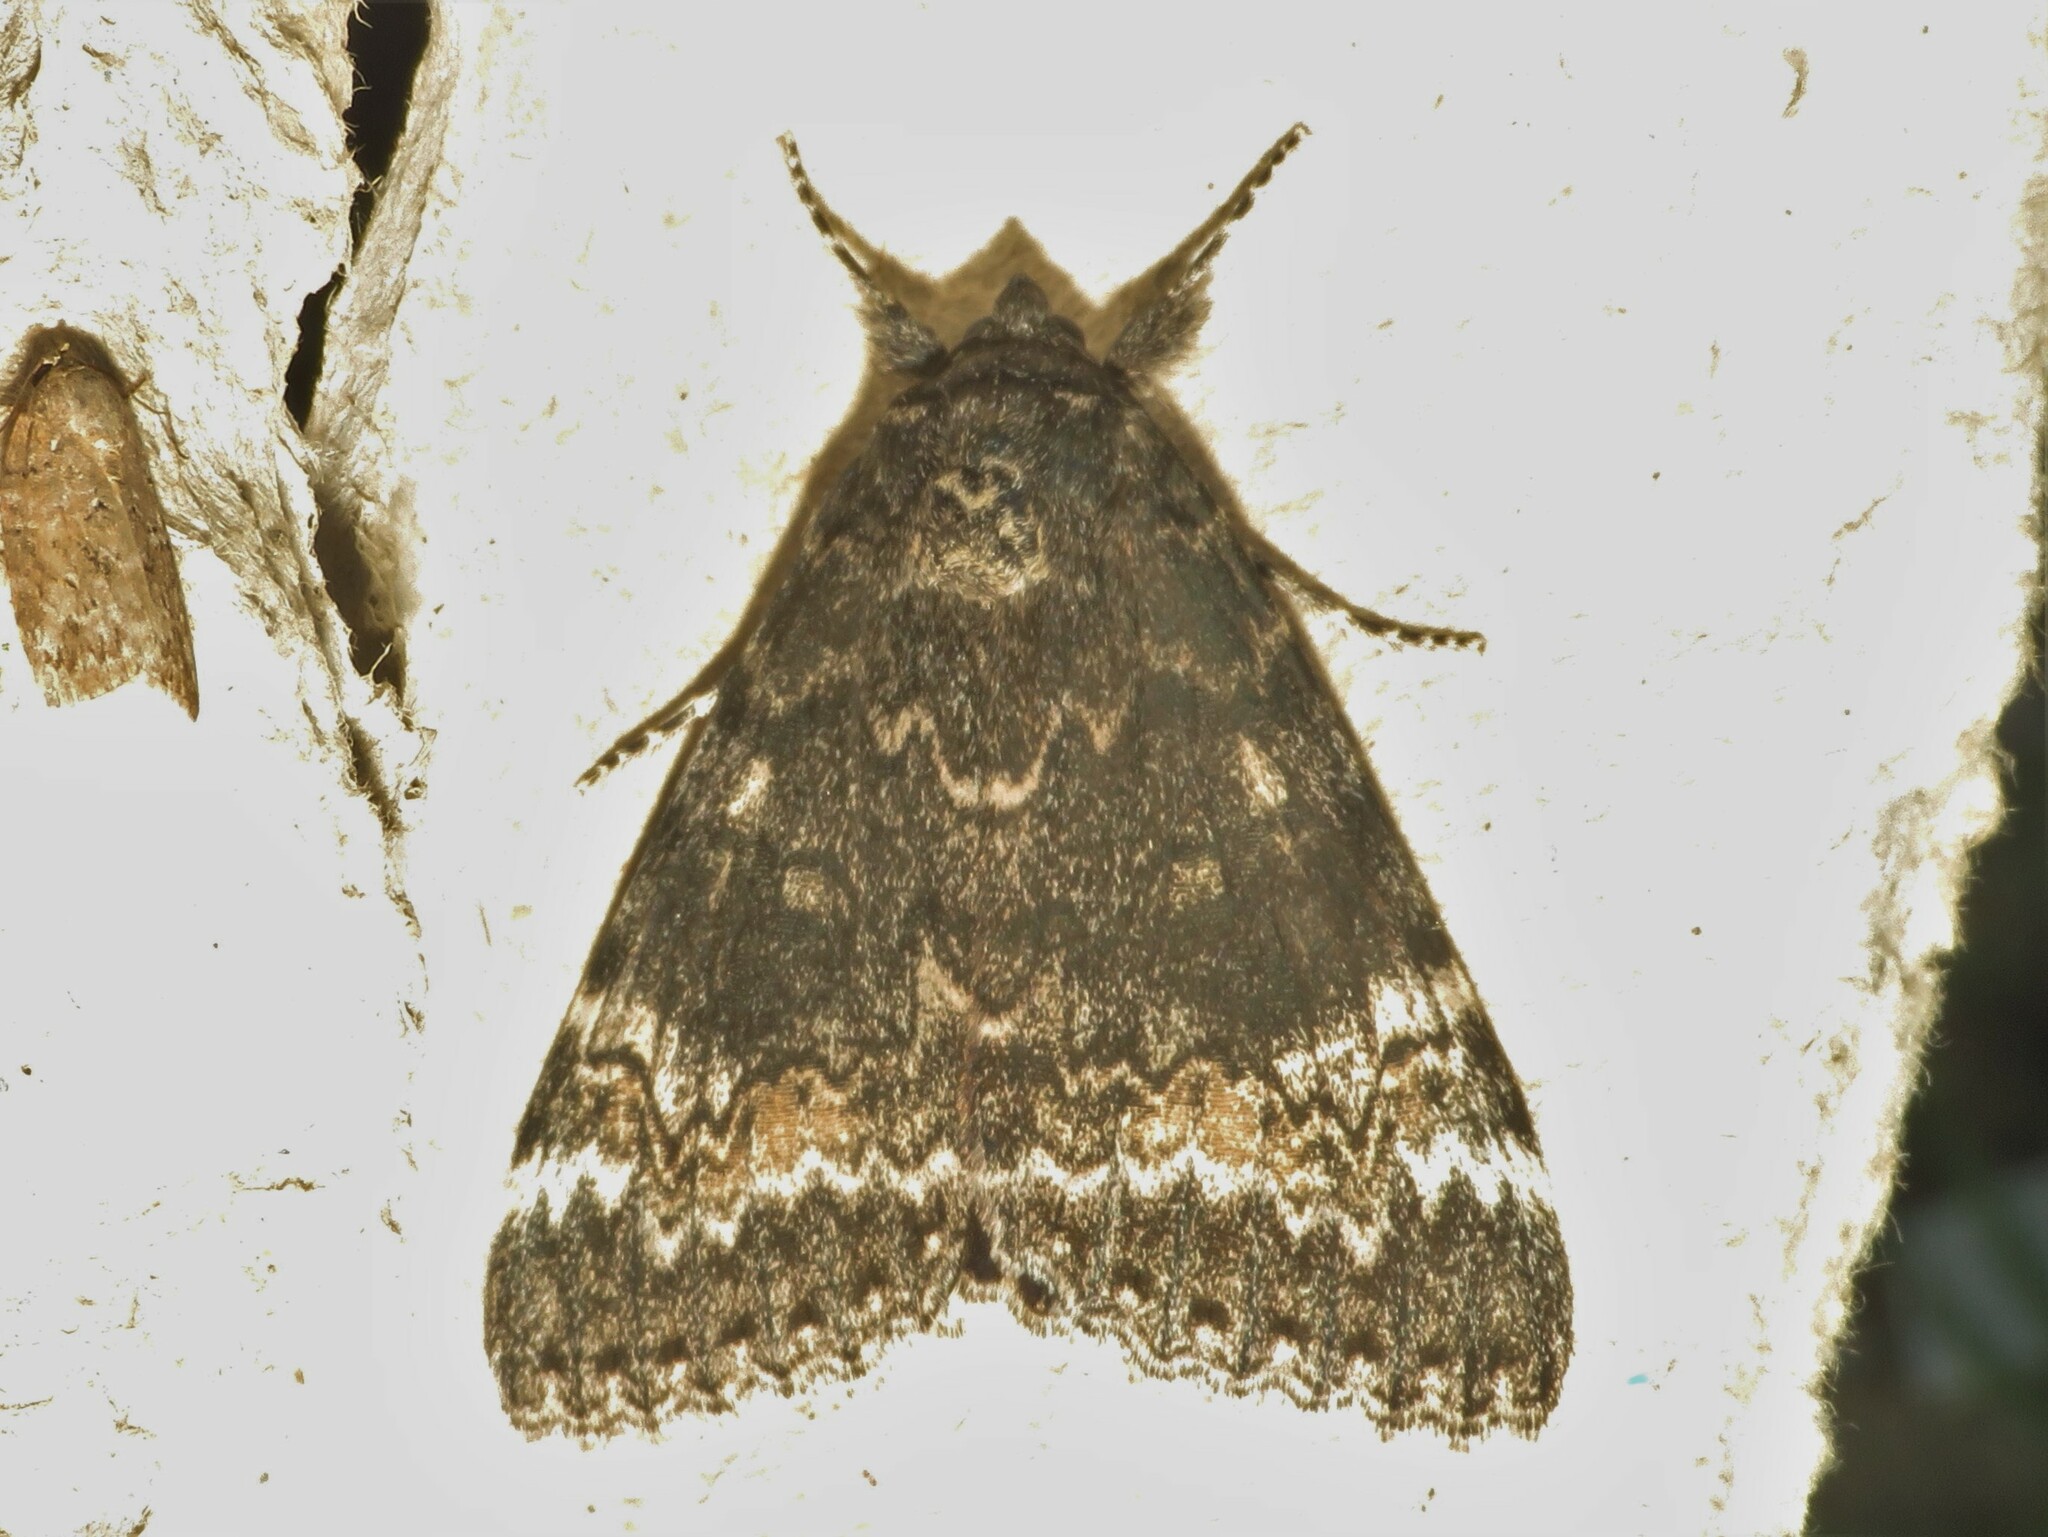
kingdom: Animalia
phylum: Arthropoda
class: Insecta
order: Lepidoptera
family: Erebidae
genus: Catocala
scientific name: Catocala briseis
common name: Briseis underwing
